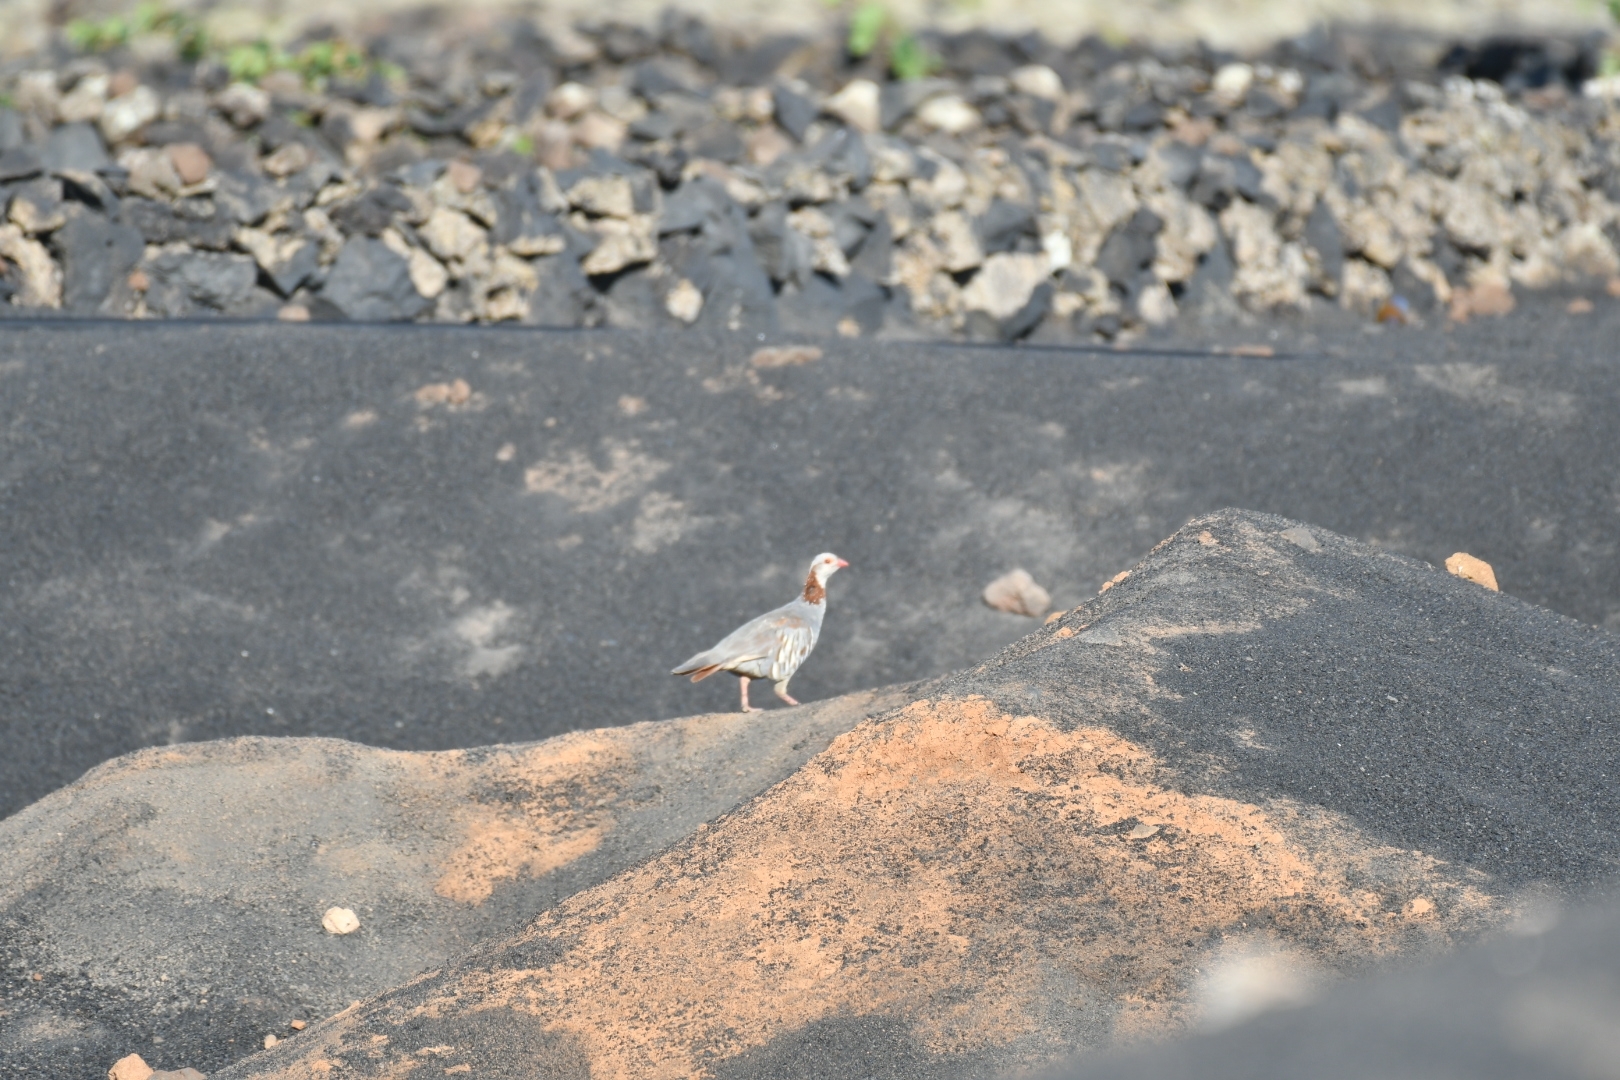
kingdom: Animalia
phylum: Chordata
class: Aves
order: Galliformes
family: Phasianidae
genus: Alectoris
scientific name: Alectoris barbara
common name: Barbary partridge
